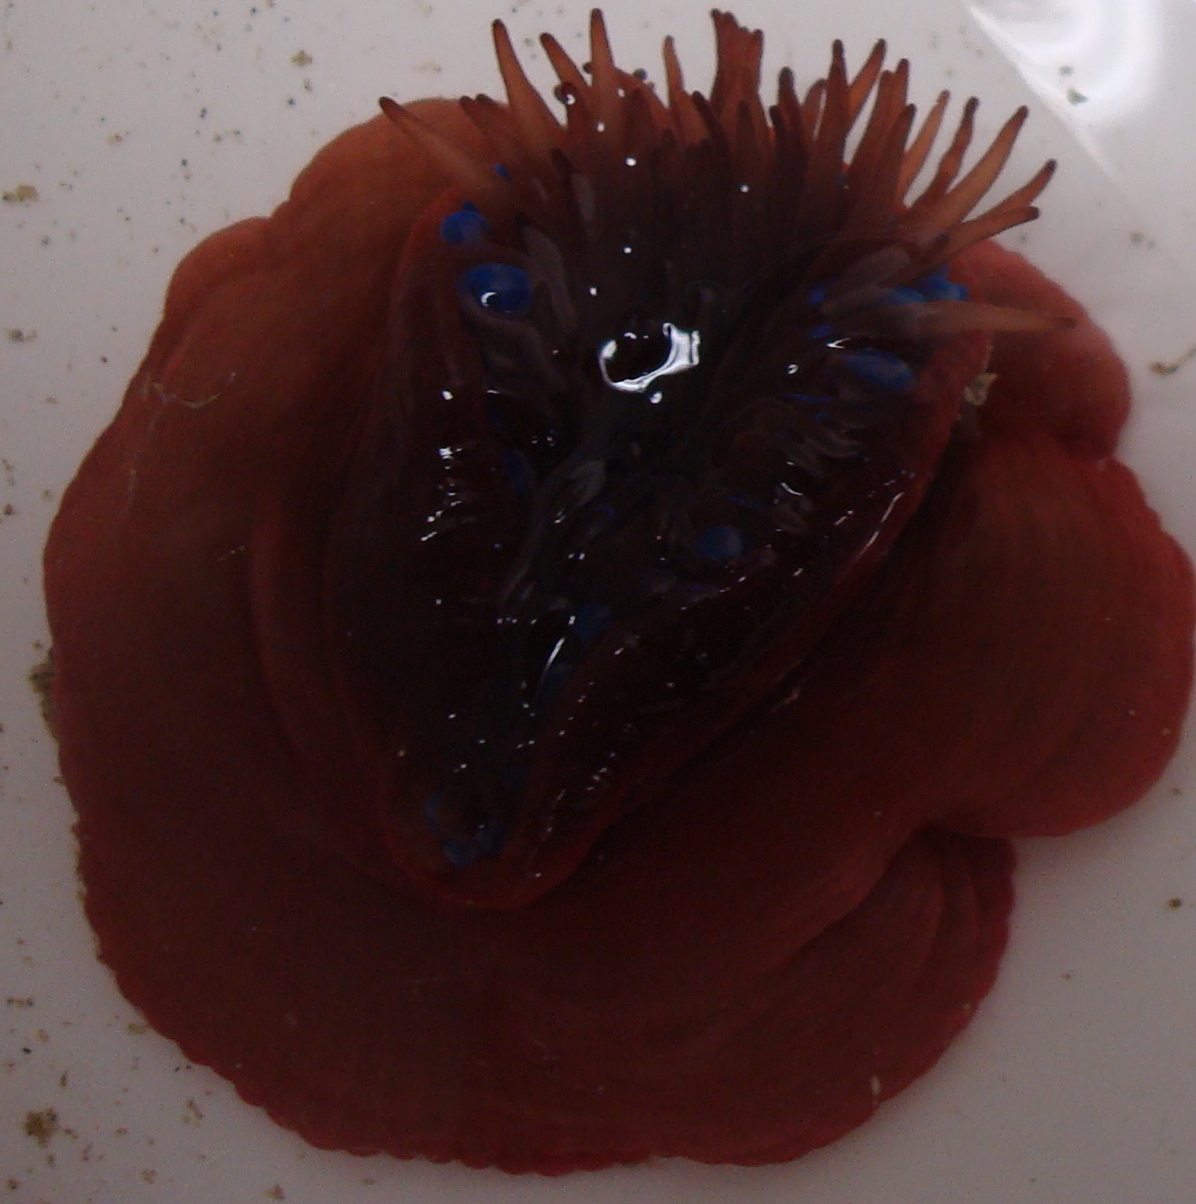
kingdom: Animalia
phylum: Cnidaria
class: Anthozoa
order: Actiniaria
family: Actiniidae
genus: Actinia
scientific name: Actinia equina
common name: Beadlet anemone
